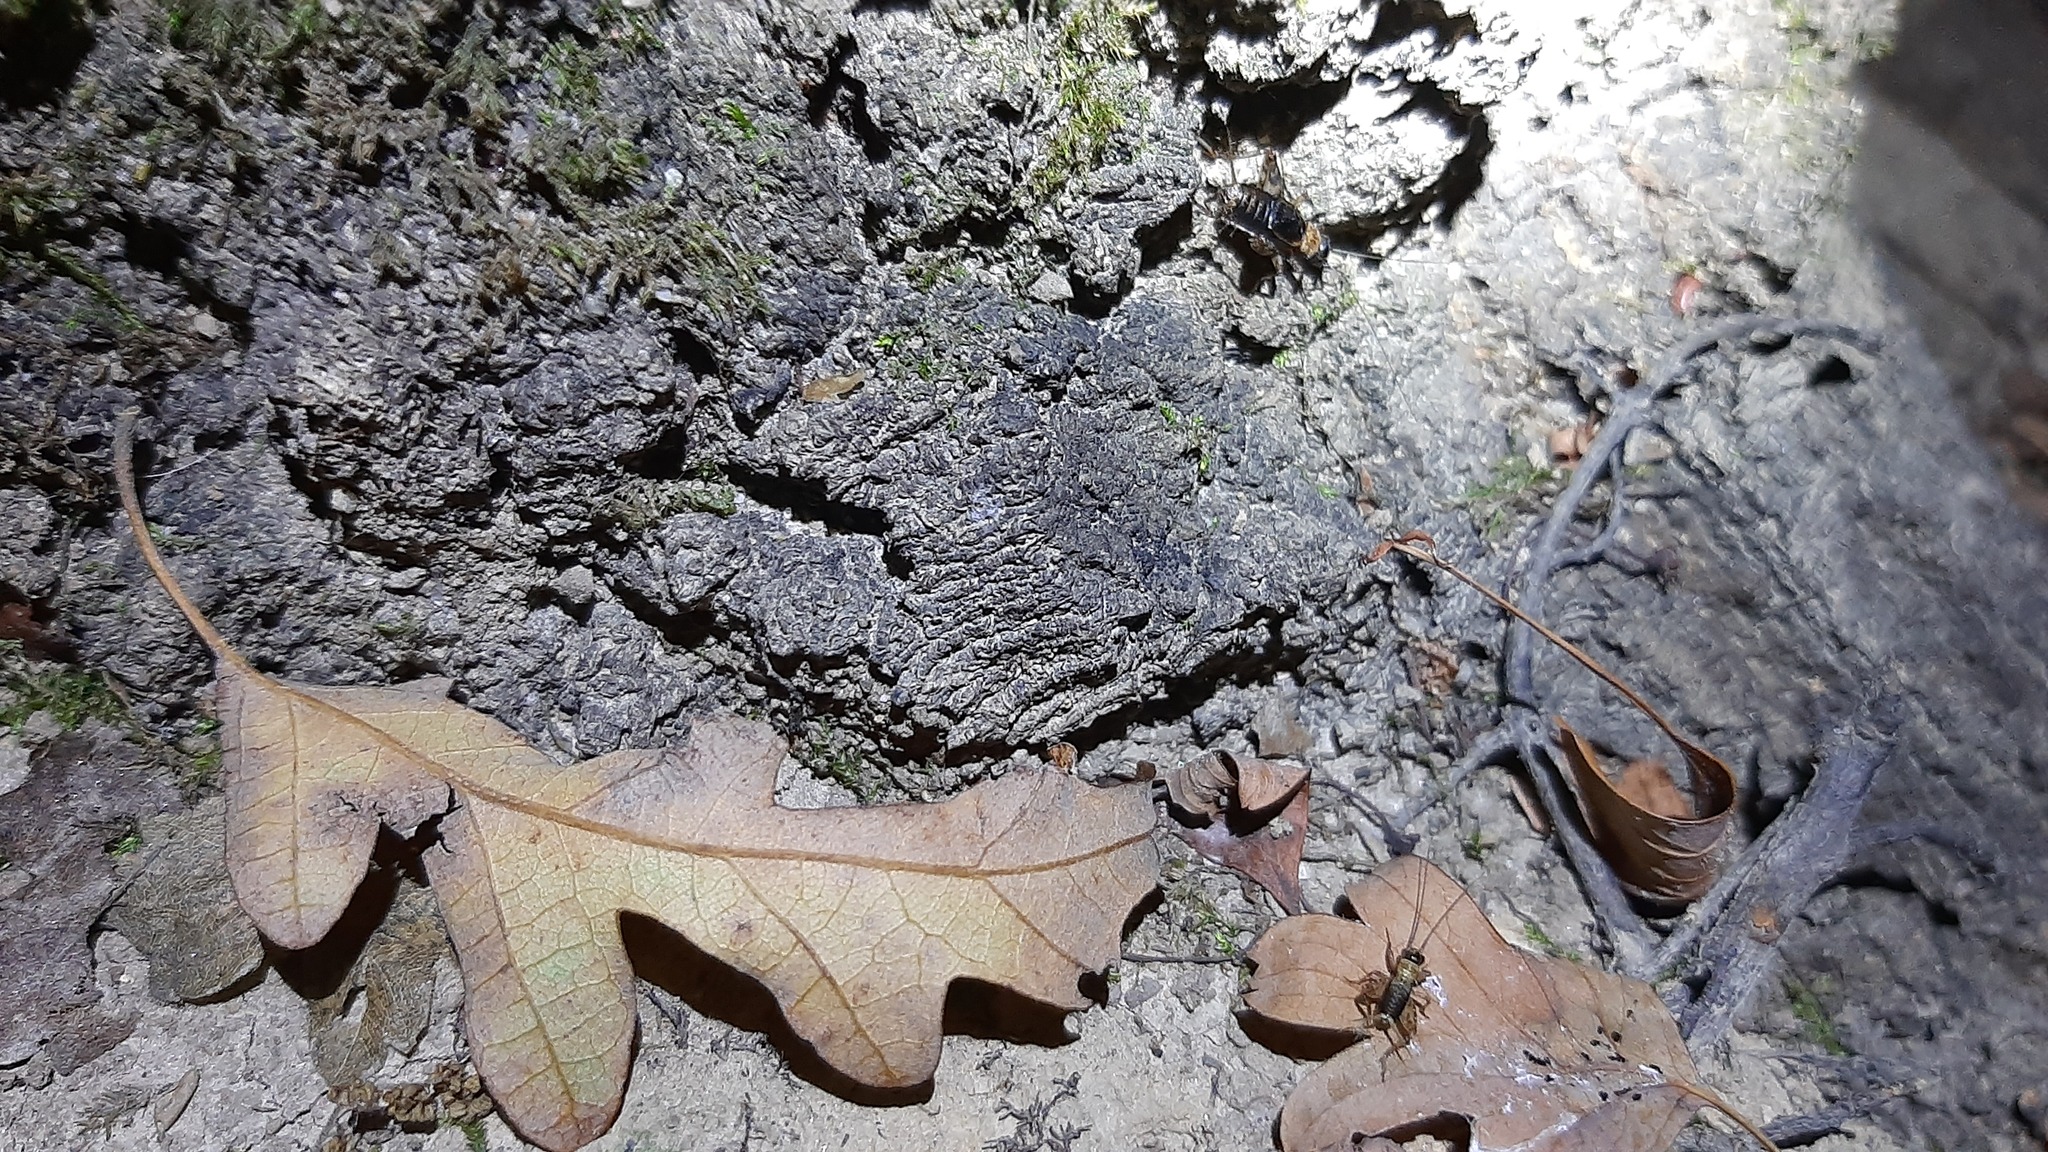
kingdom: Animalia
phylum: Arthropoda
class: Insecta
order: Orthoptera
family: Trigonidiidae
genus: Nemobius
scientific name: Nemobius sylvestris
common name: Wood-cricket
